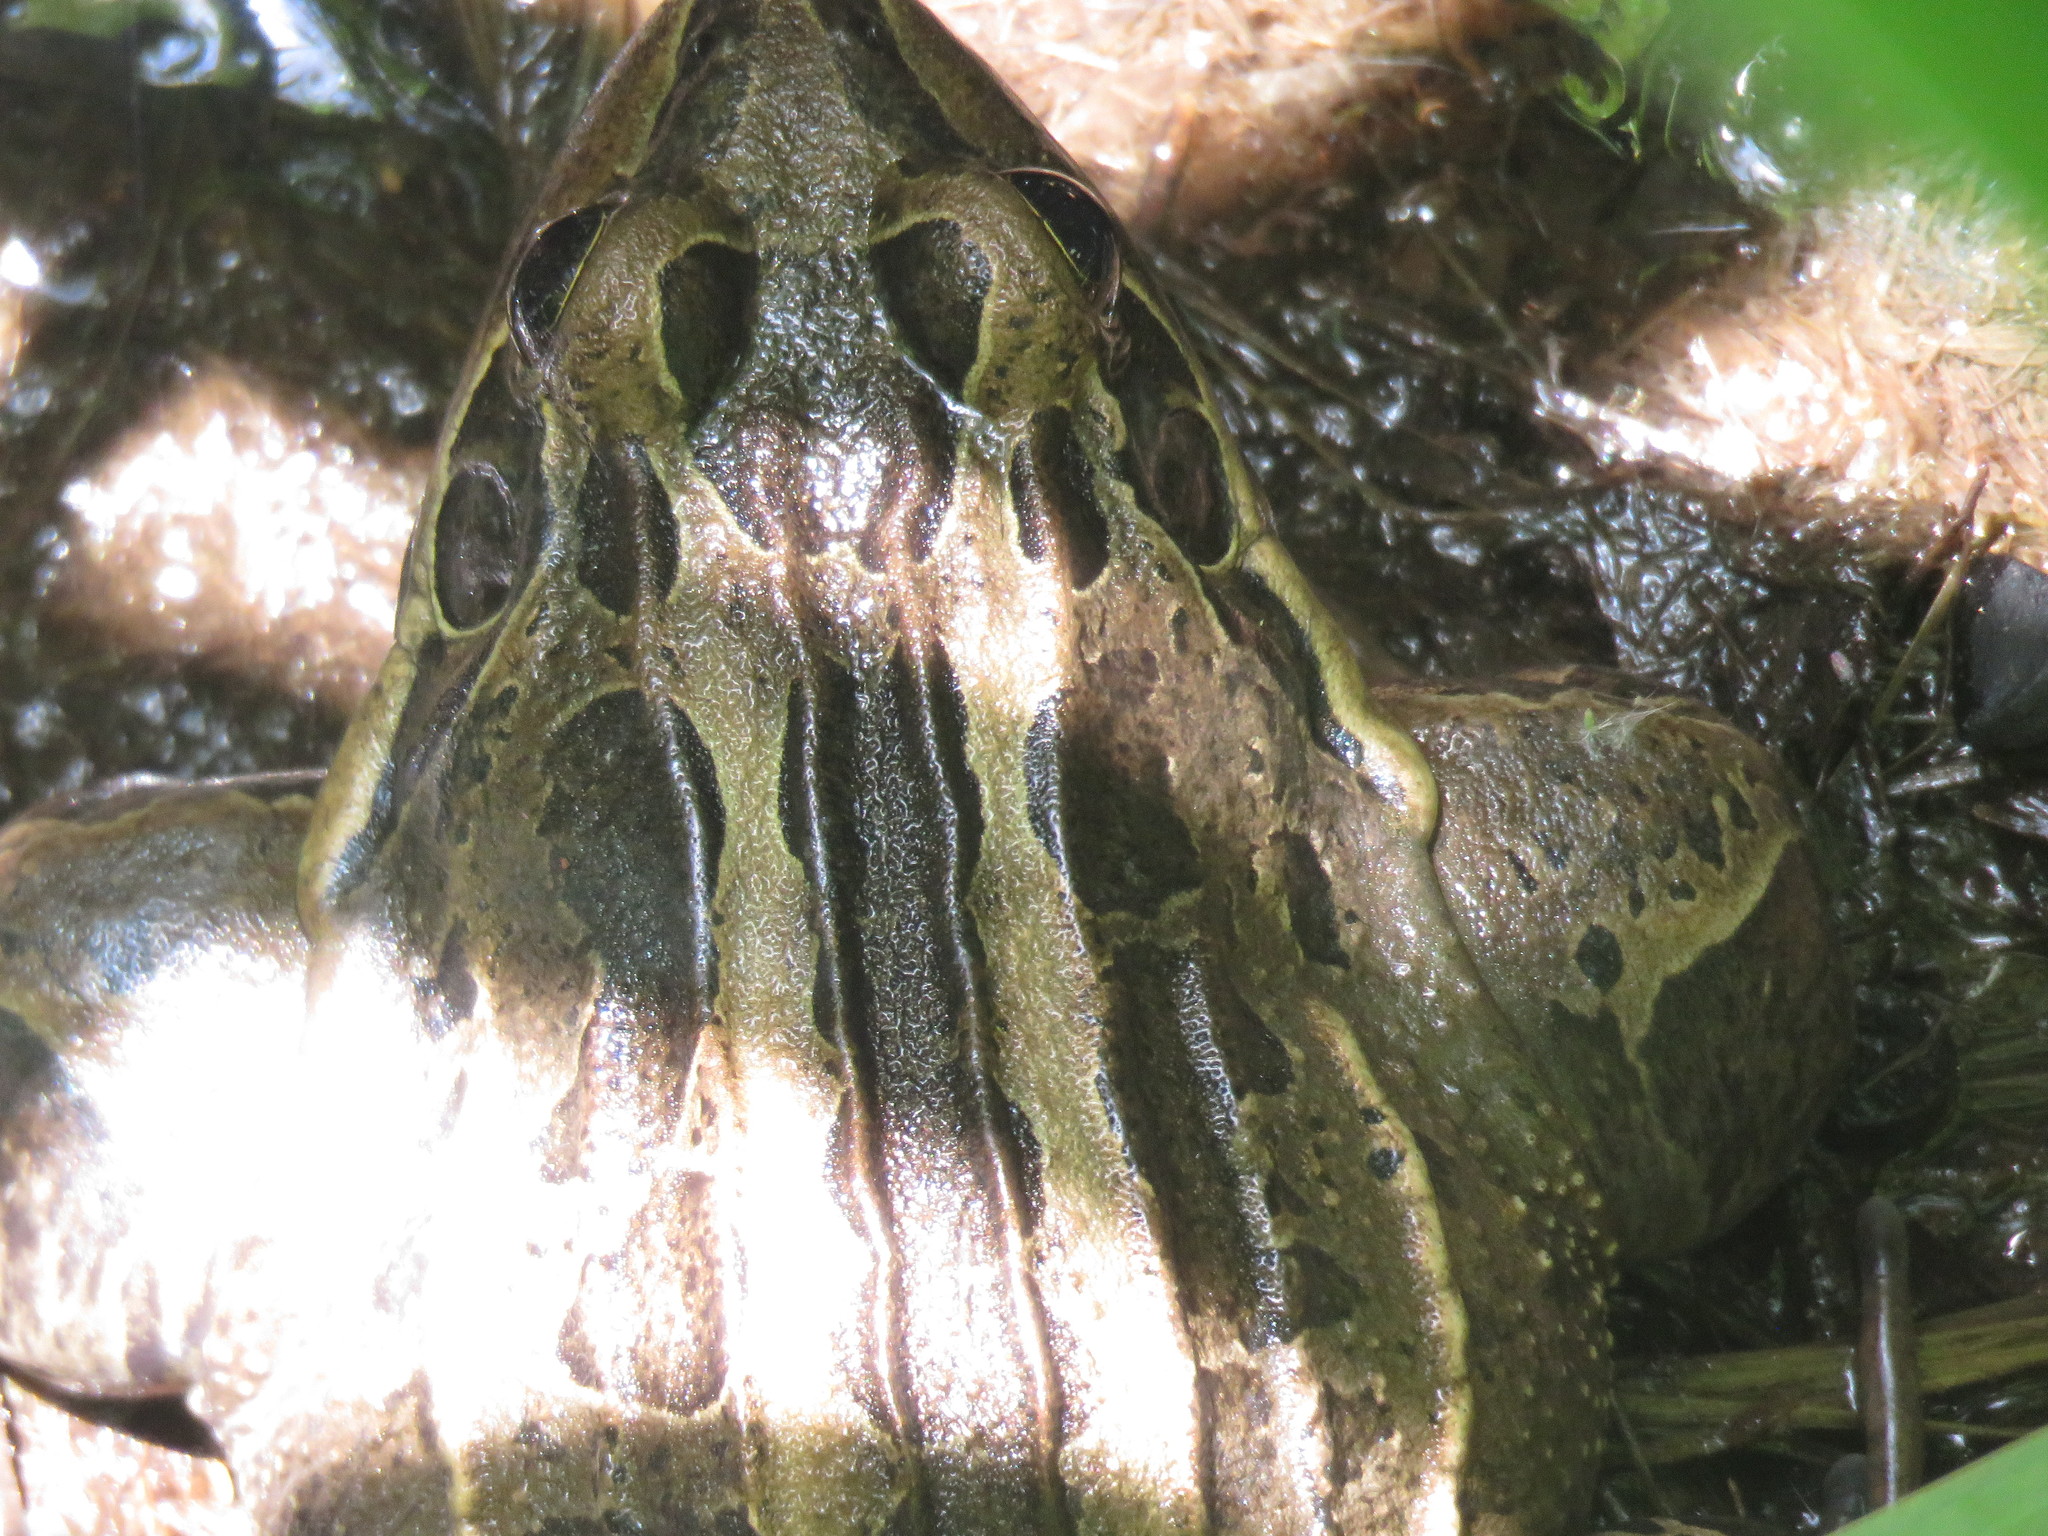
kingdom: Animalia
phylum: Chordata
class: Amphibia
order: Anura
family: Leptodactylidae
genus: Leptodactylus
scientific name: Leptodactylus luctator
